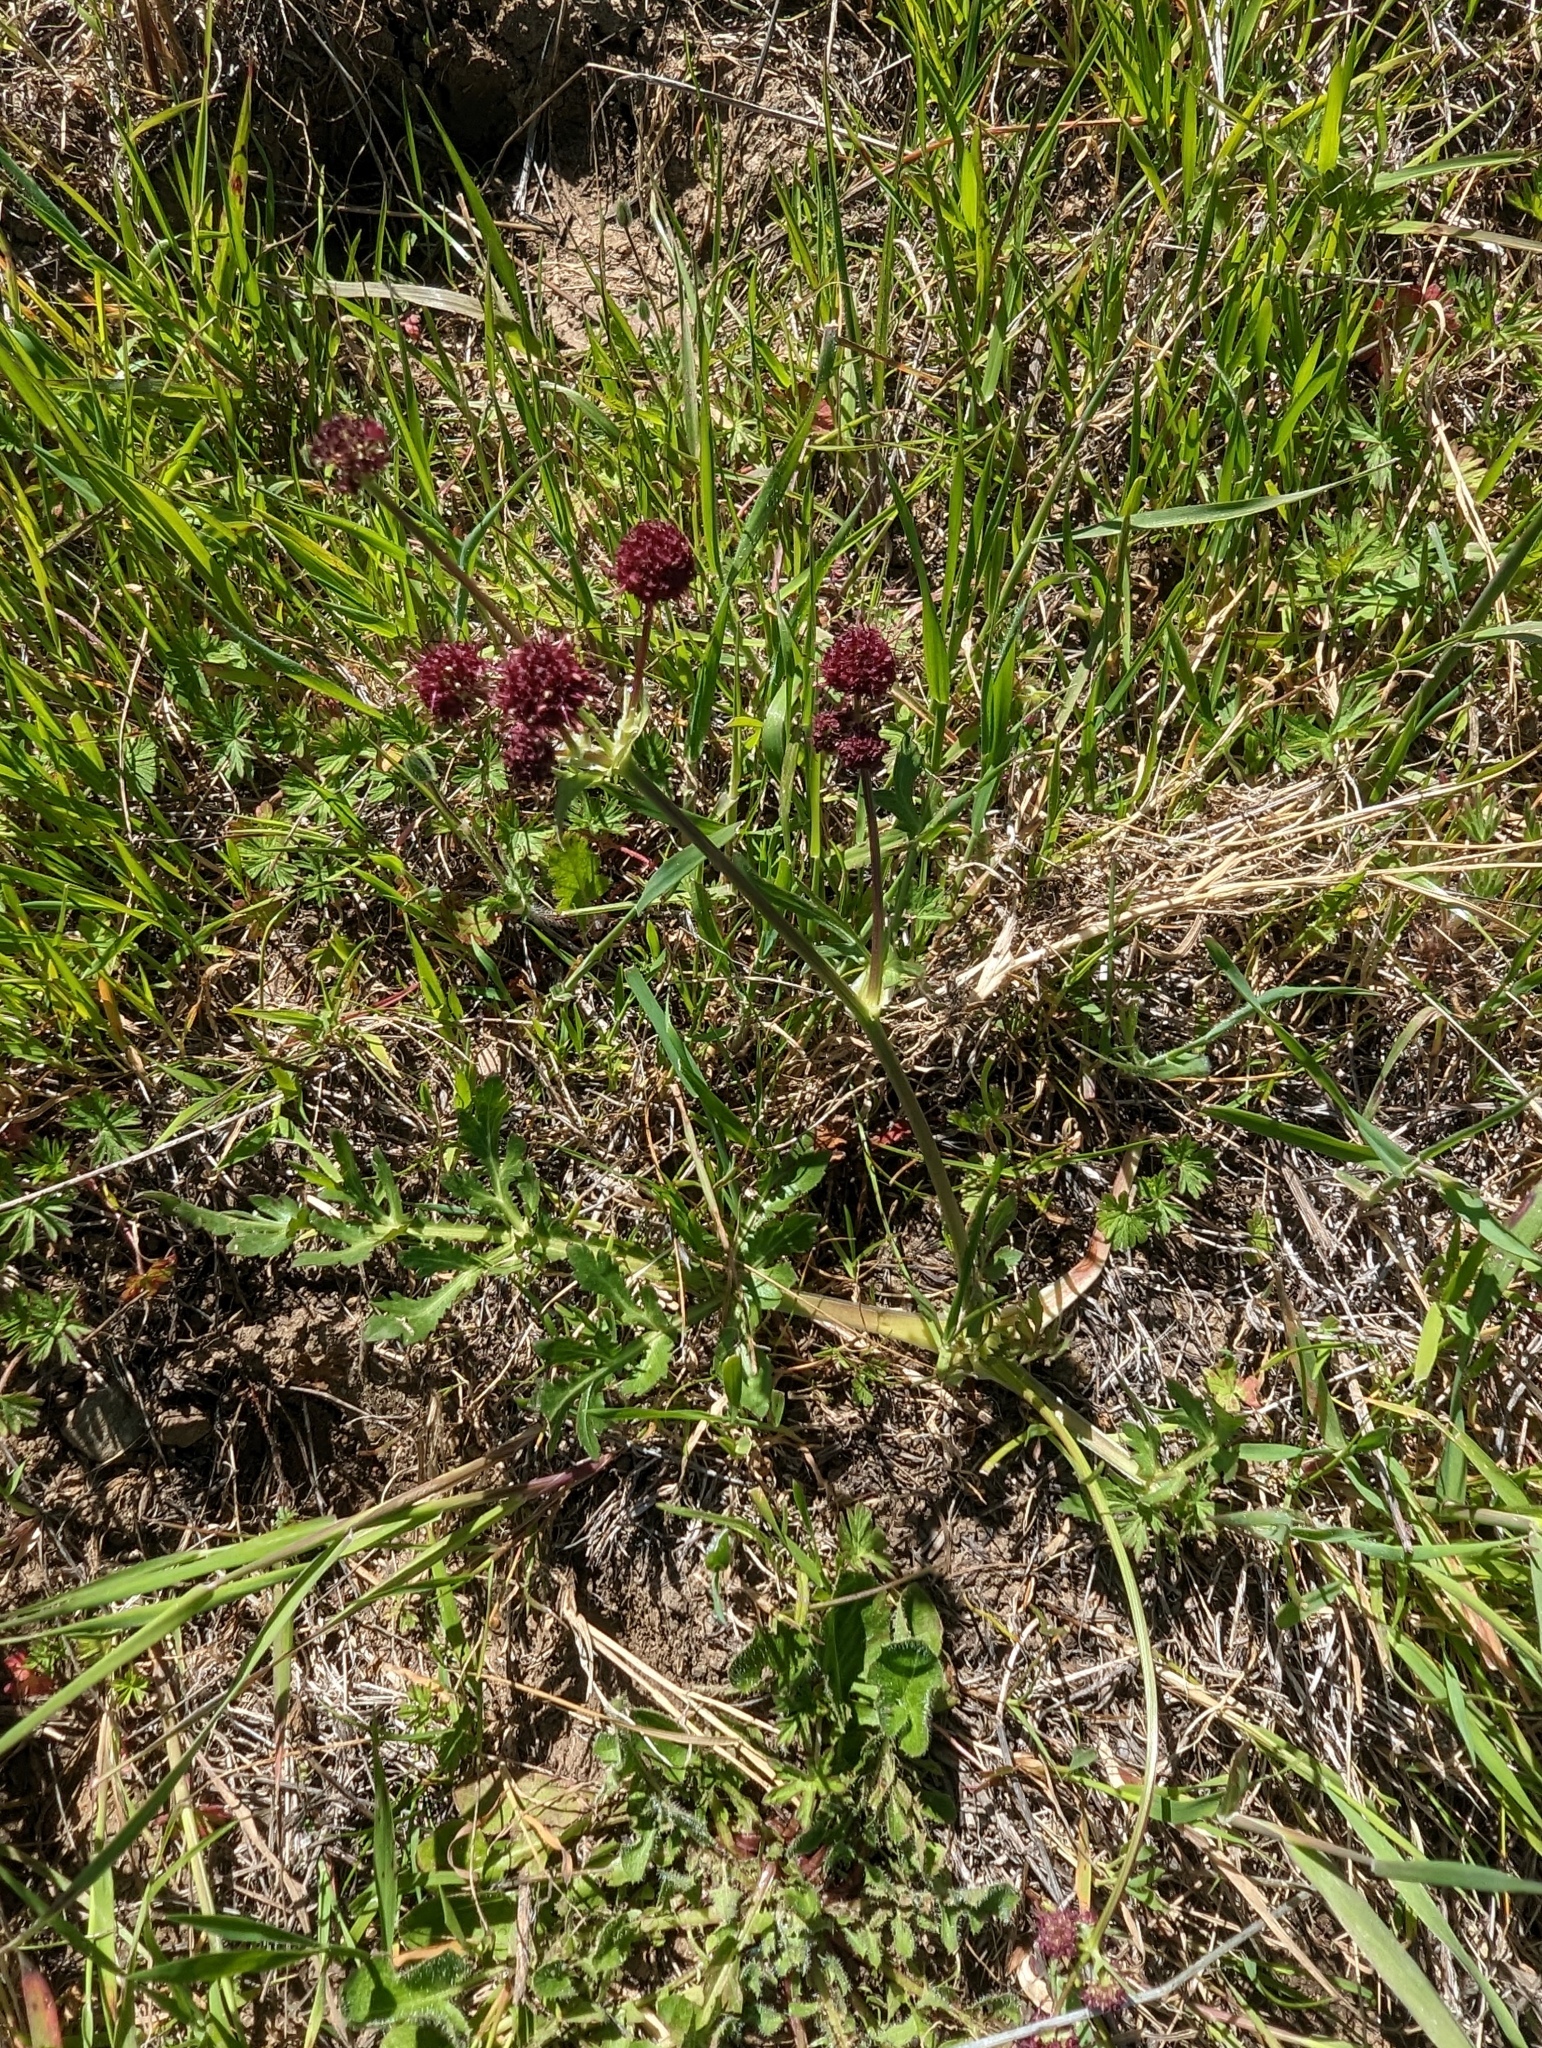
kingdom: Plantae
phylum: Tracheophyta
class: Magnoliopsida
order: Apiales
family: Apiaceae
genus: Sanicula
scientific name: Sanicula bipinnatifida
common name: Shoe-buttons
